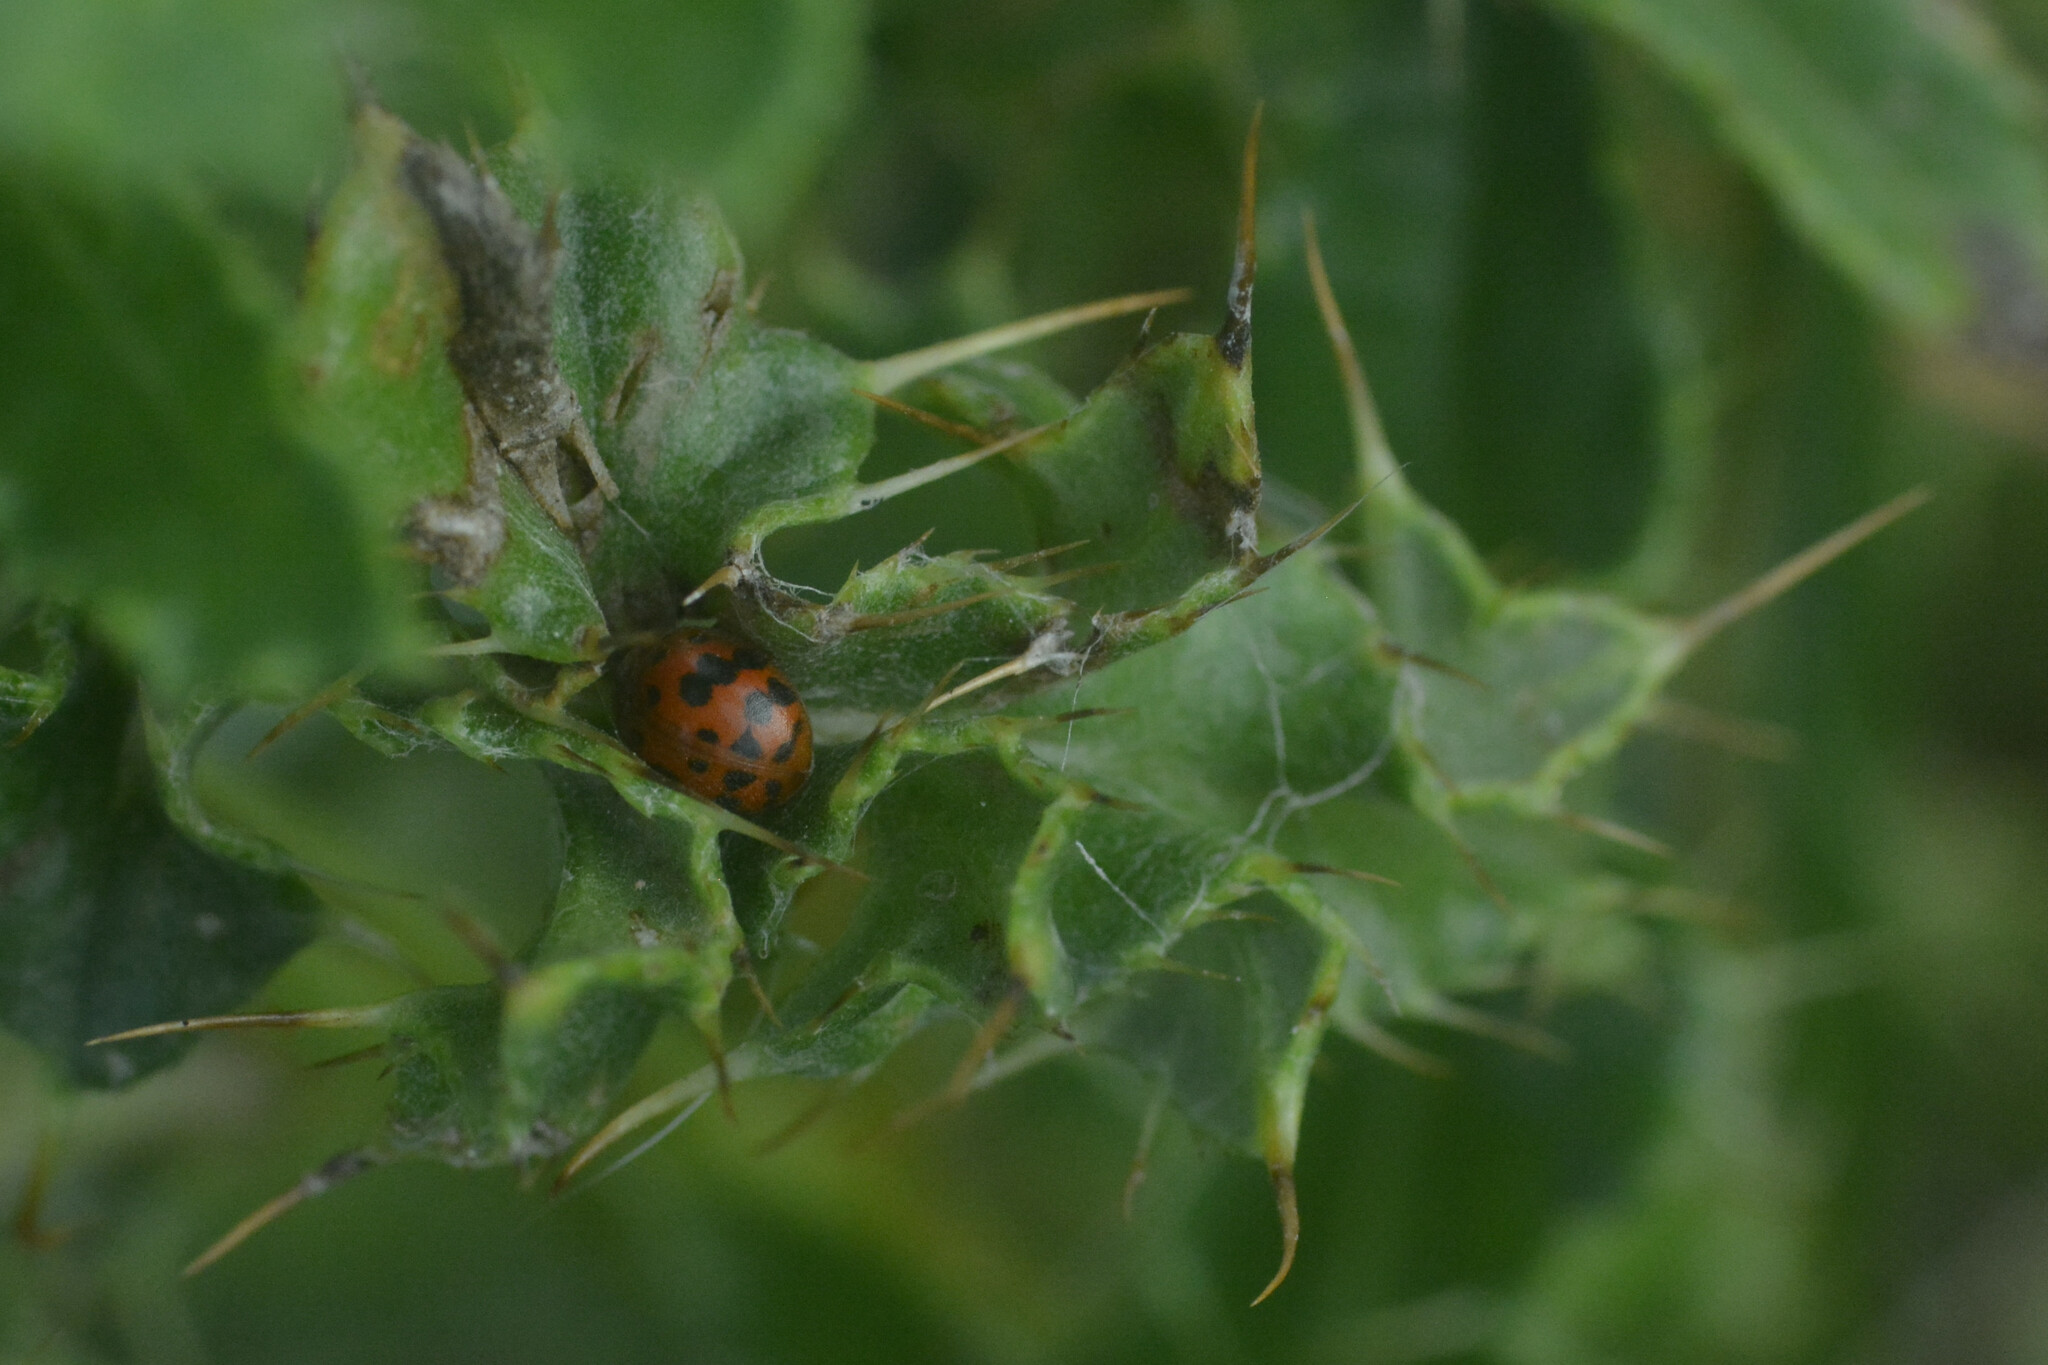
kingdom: Animalia
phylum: Arthropoda
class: Insecta
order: Coleoptera
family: Coccinellidae
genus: Subcoccinella
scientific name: Subcoccinella vigintiquatuorpunctata
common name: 24-spot ladybird
